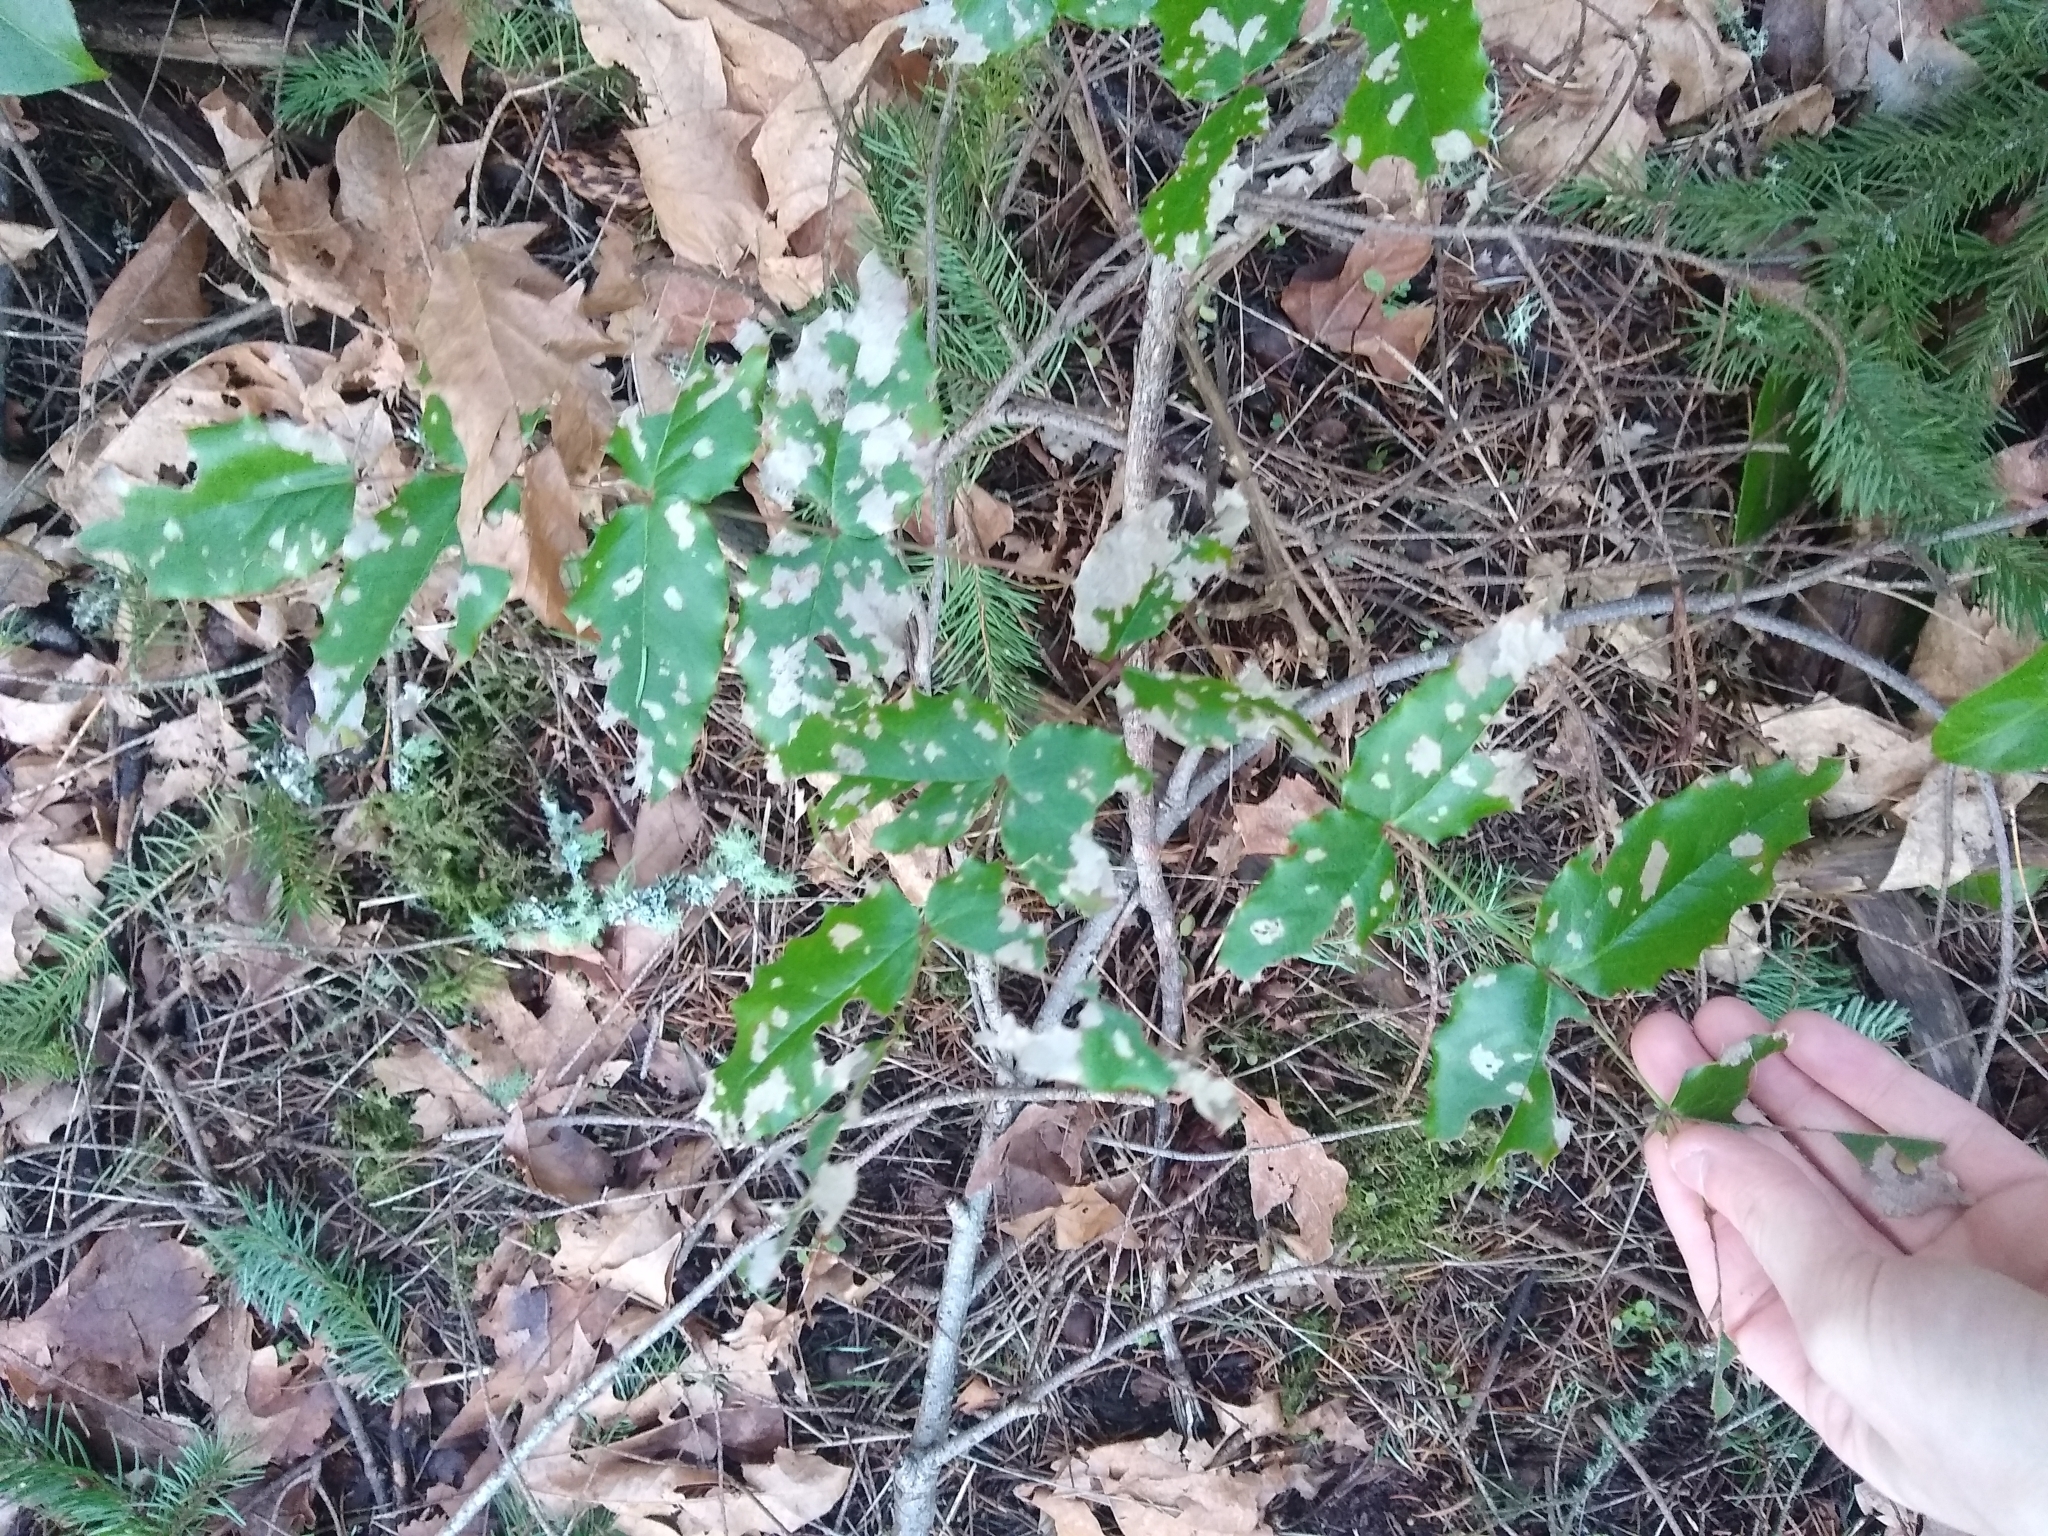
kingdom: Plantae
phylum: Tracheophyta
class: Magnoliopsida
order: Ranunculales
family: Berberidaceae
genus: Mahonia
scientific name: Mahonia aquifolium
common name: Oregon-grape
